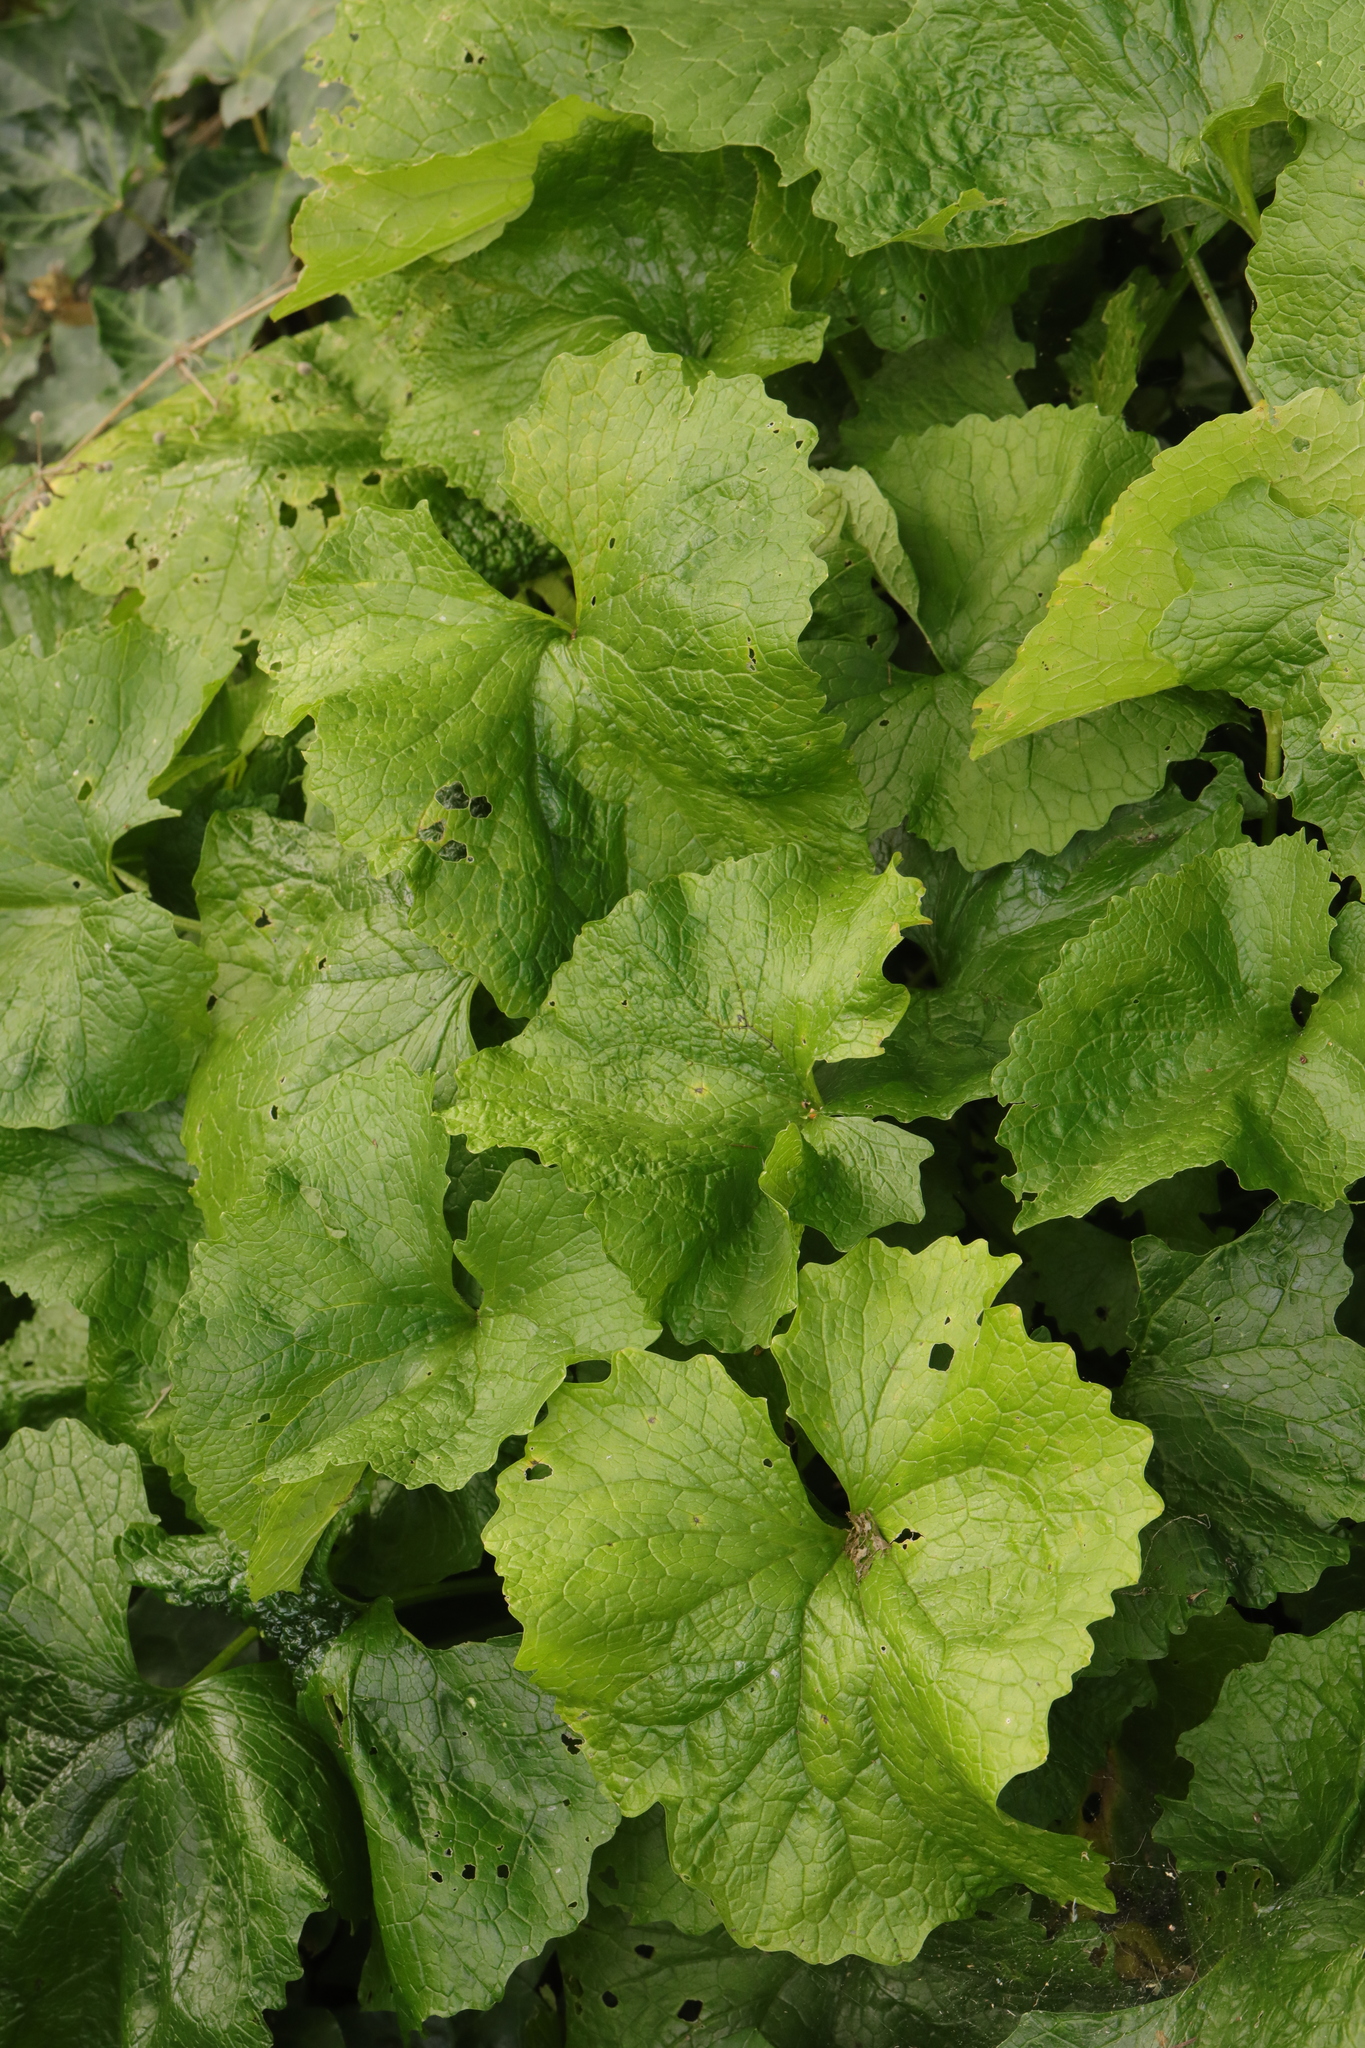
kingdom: Plantae
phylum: Tracheophyta
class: Magnoliopsida
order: Brassicales
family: Brassicaceae
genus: Alliaria
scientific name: Alliaria petiolata
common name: Garlic mustard
